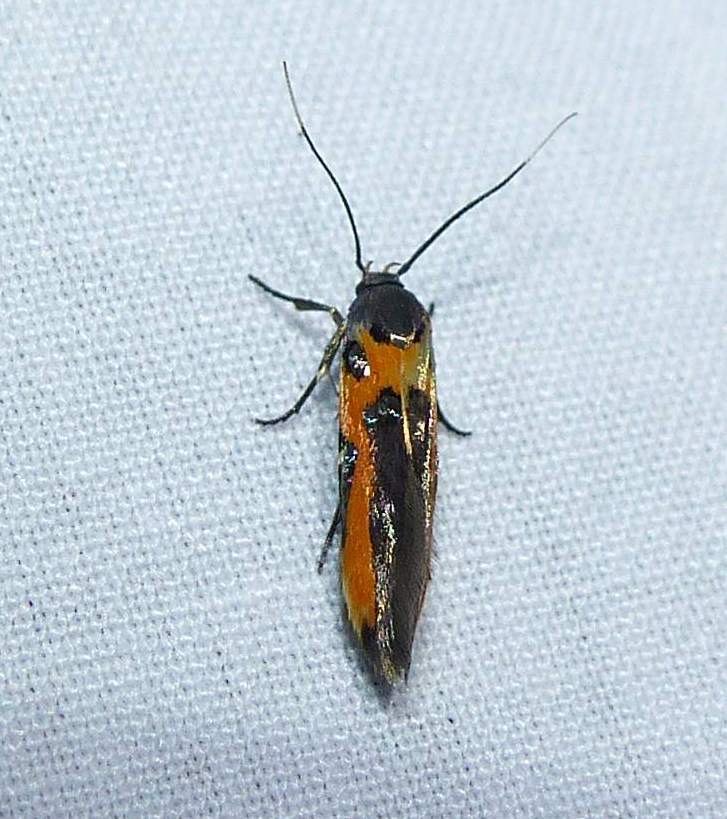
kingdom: Animalia
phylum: Arthropoda
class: Insecta
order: Lepidoptera
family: Cosmopterigidae
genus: Euclemensia
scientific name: Euclemensia bassettella
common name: Kermes scale moth
